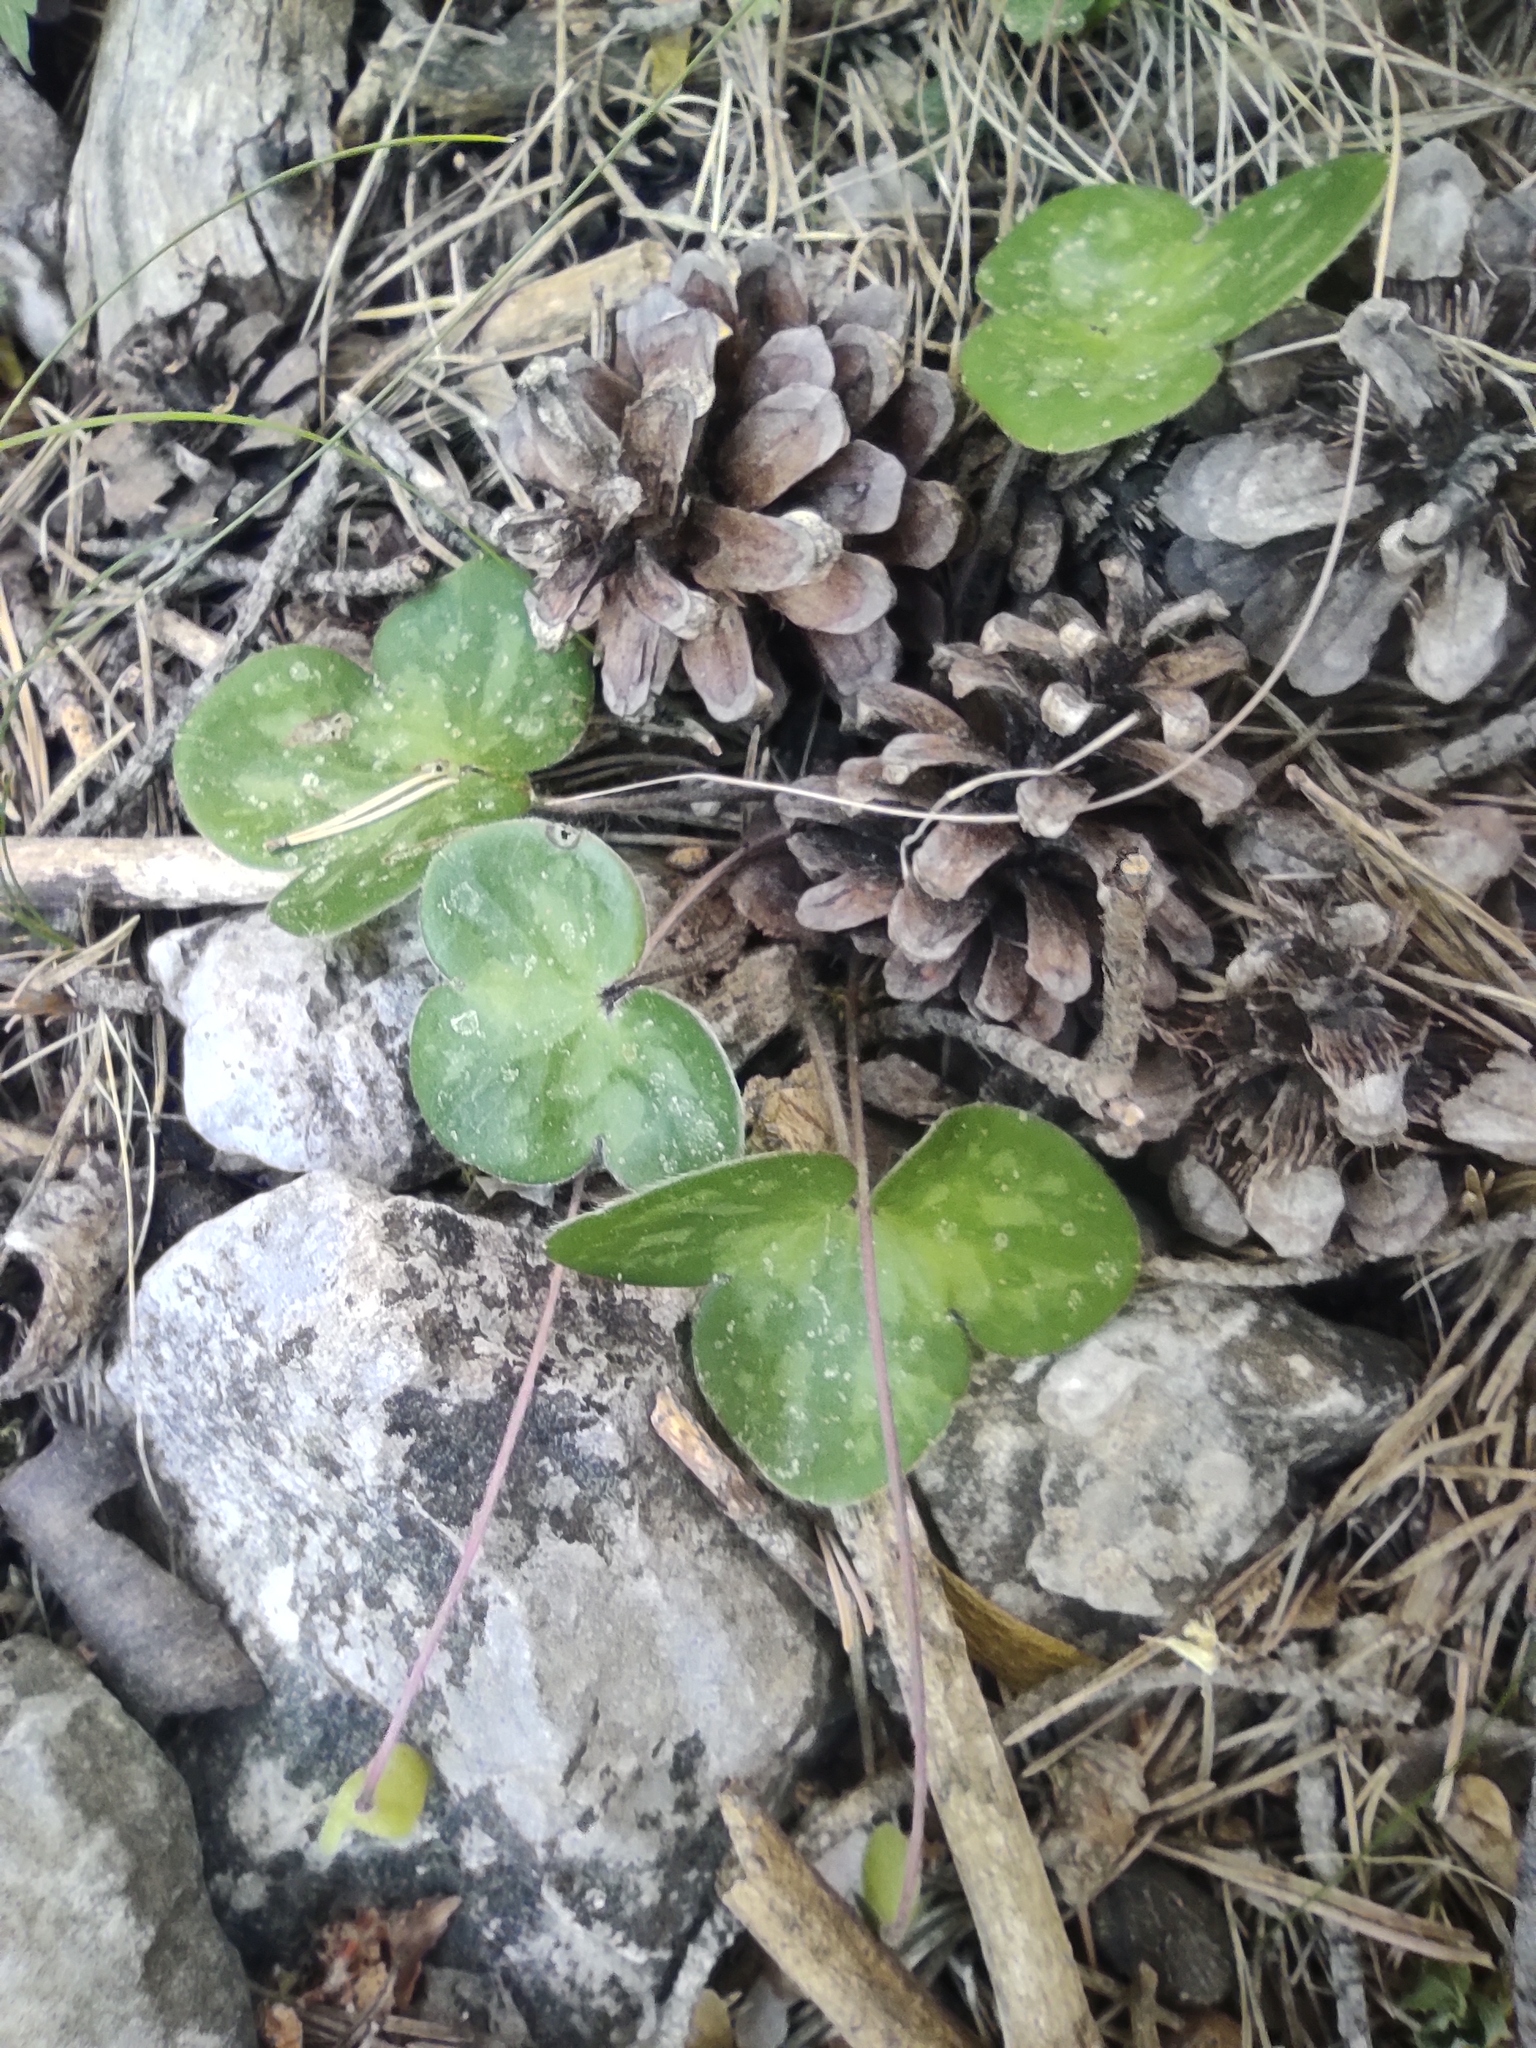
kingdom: Plantae
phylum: Tracheophyta
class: Magnoliopsida
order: Ranunculales
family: Ranunculaceae
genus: Hepatica
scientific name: Hepatica nobilis
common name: Liverleaf
